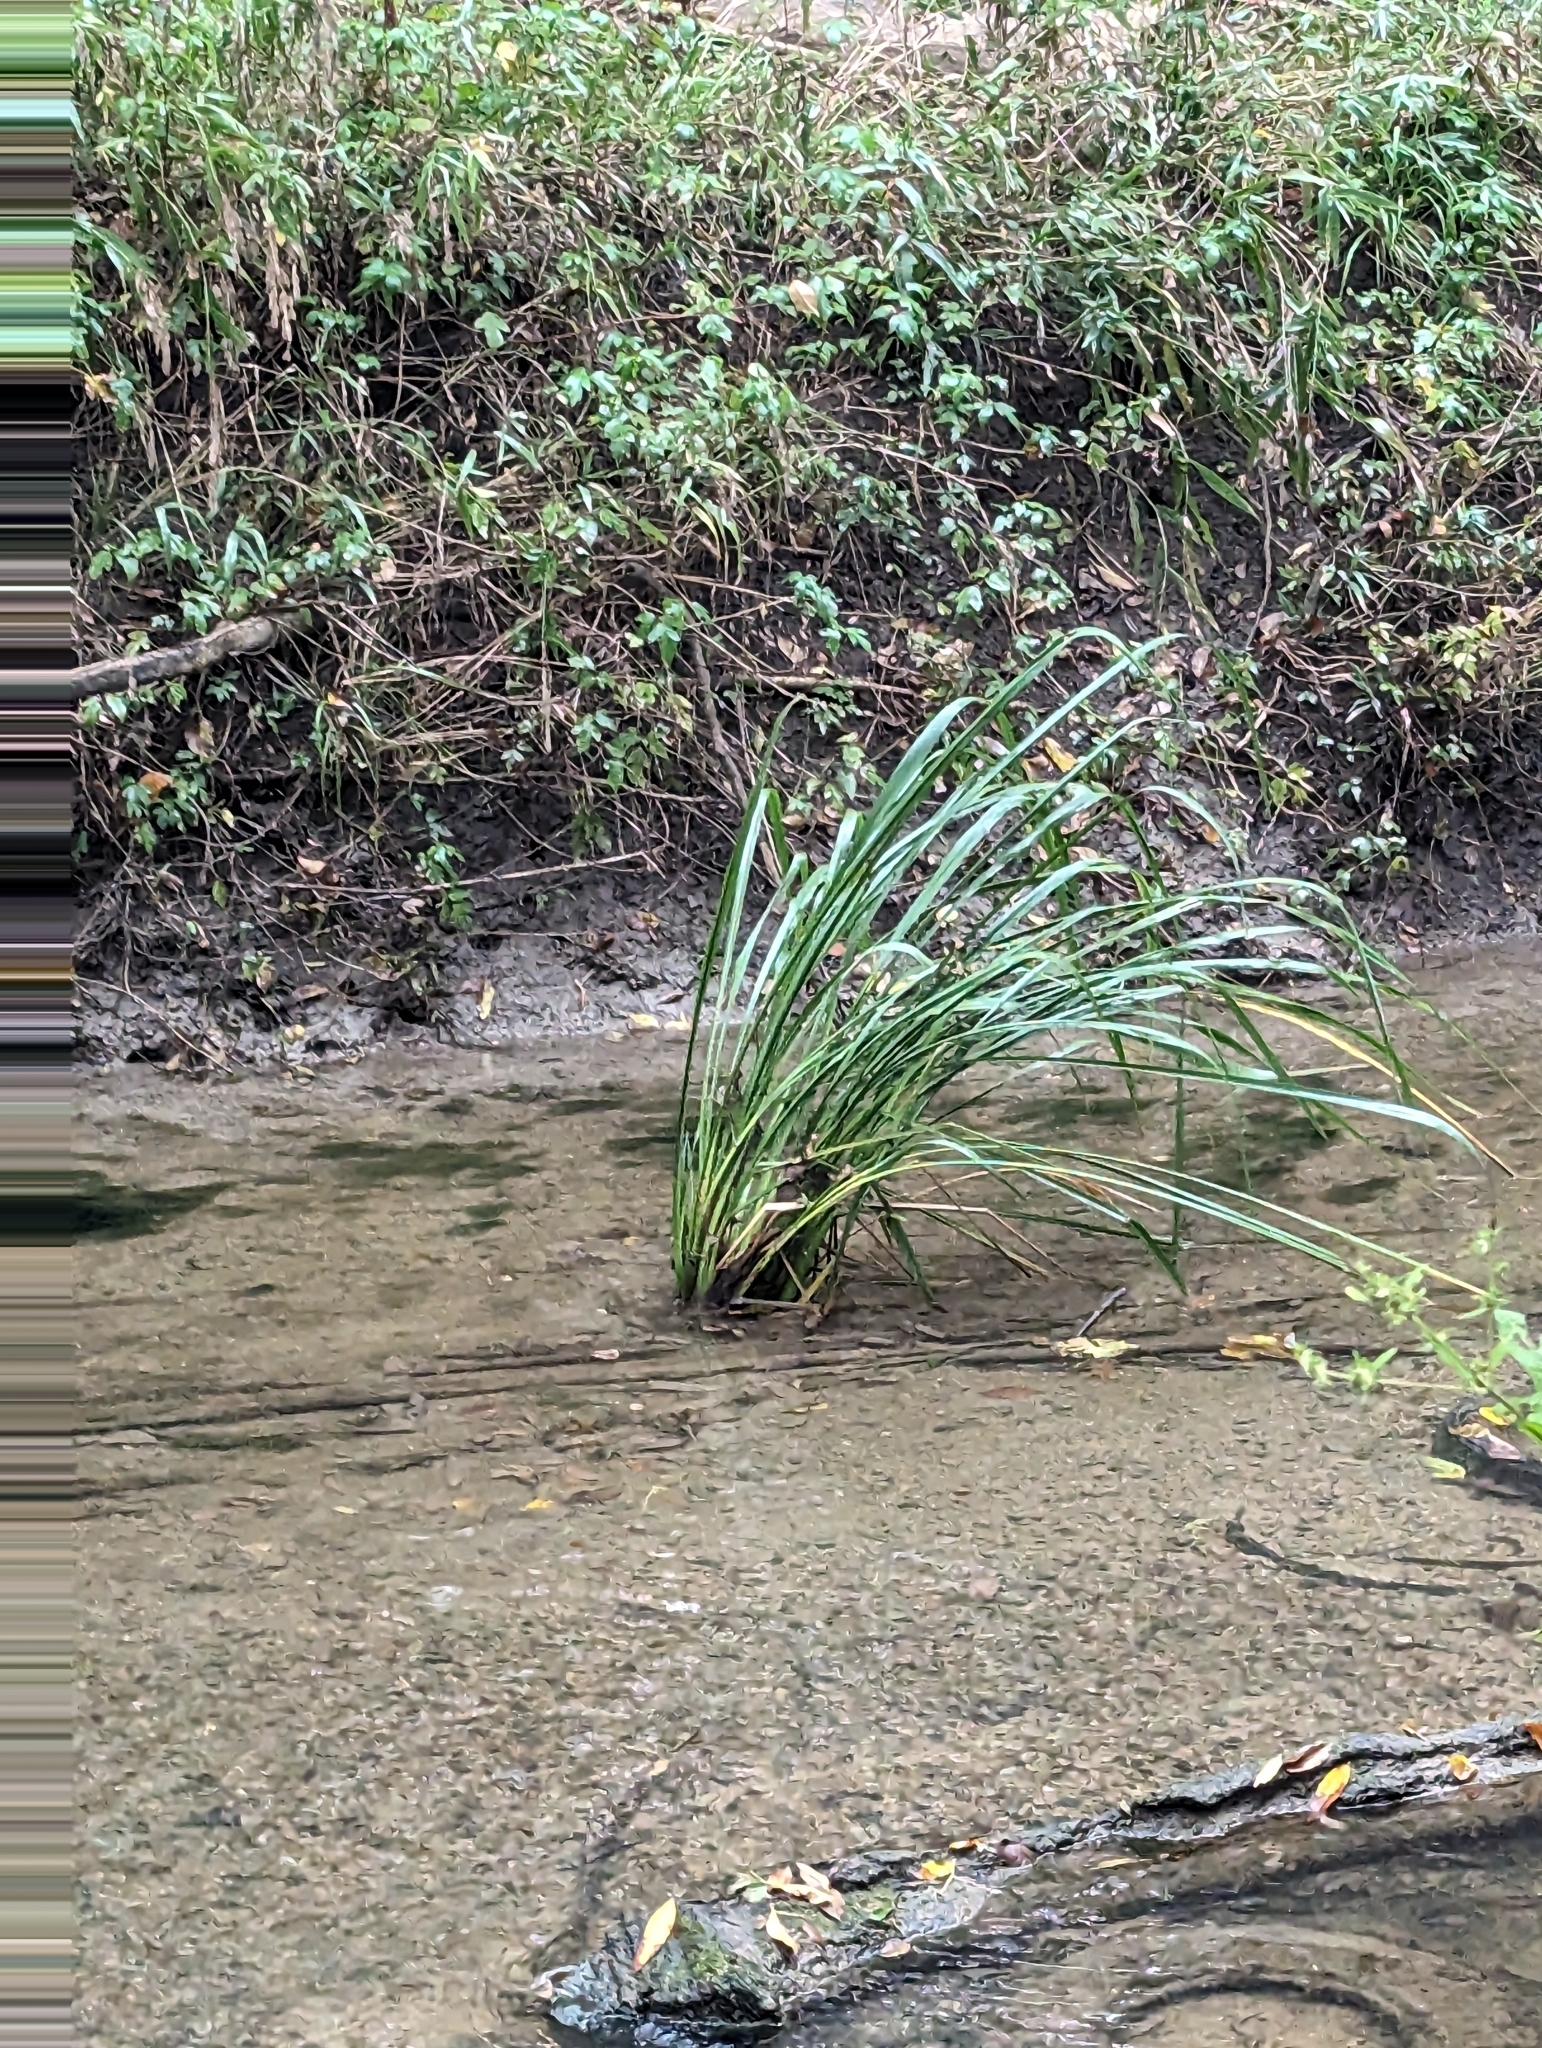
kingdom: Plantae
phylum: Tracheophyta
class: Liliopsida
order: Poales
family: Poaceae
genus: Zizaniopsis
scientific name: Zizaniopsis miliacea
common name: Giant-cutgrass
